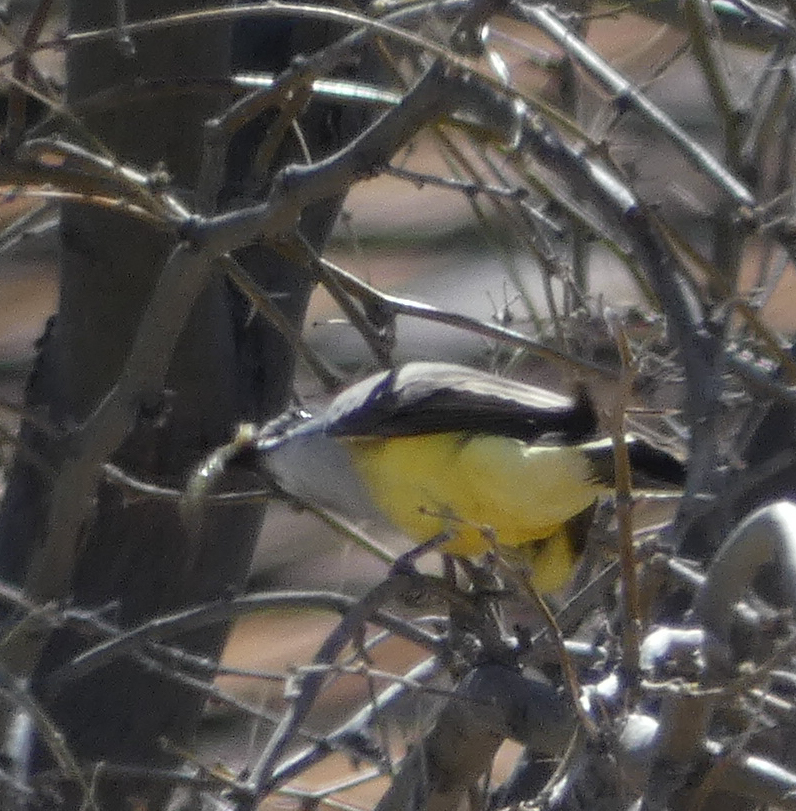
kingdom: Animalia
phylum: Chordata
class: Aves
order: Passeriformes
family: Tyrannidae
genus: Tyrannus
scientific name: Tyrannus verticalis
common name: Western kingbird
